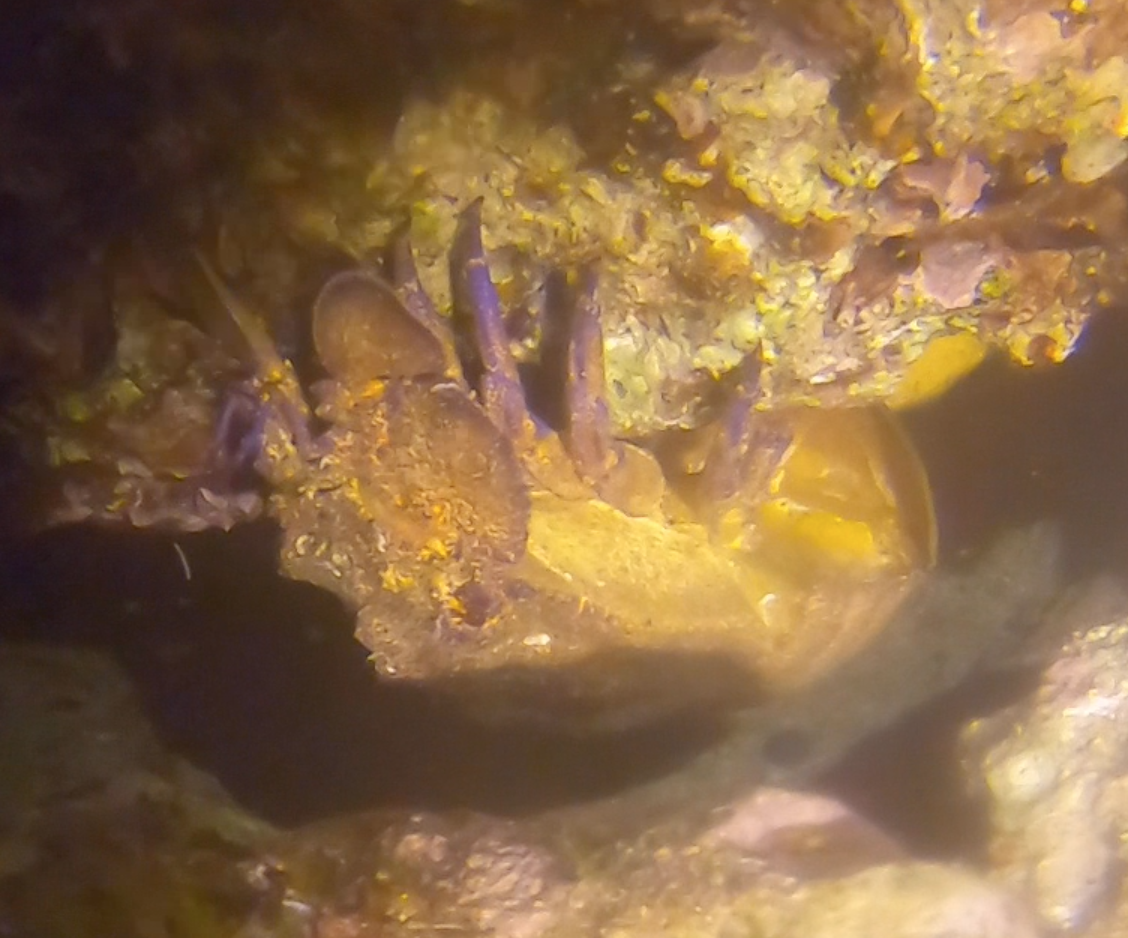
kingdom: Animalia
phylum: Arthropoda
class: Malacostraca
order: Decapoda
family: Scyllaridae
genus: Scyllarides
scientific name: Scyllarides latus
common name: Mediterranean slipper lobster
